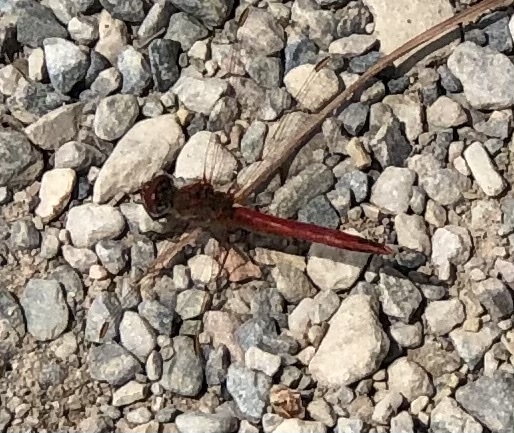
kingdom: Animalia
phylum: Arthropoda
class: Insecta
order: Odonata
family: Libellulidae
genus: Sympetrum
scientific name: Sympetrum fonscolombii
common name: Red-veined darter
